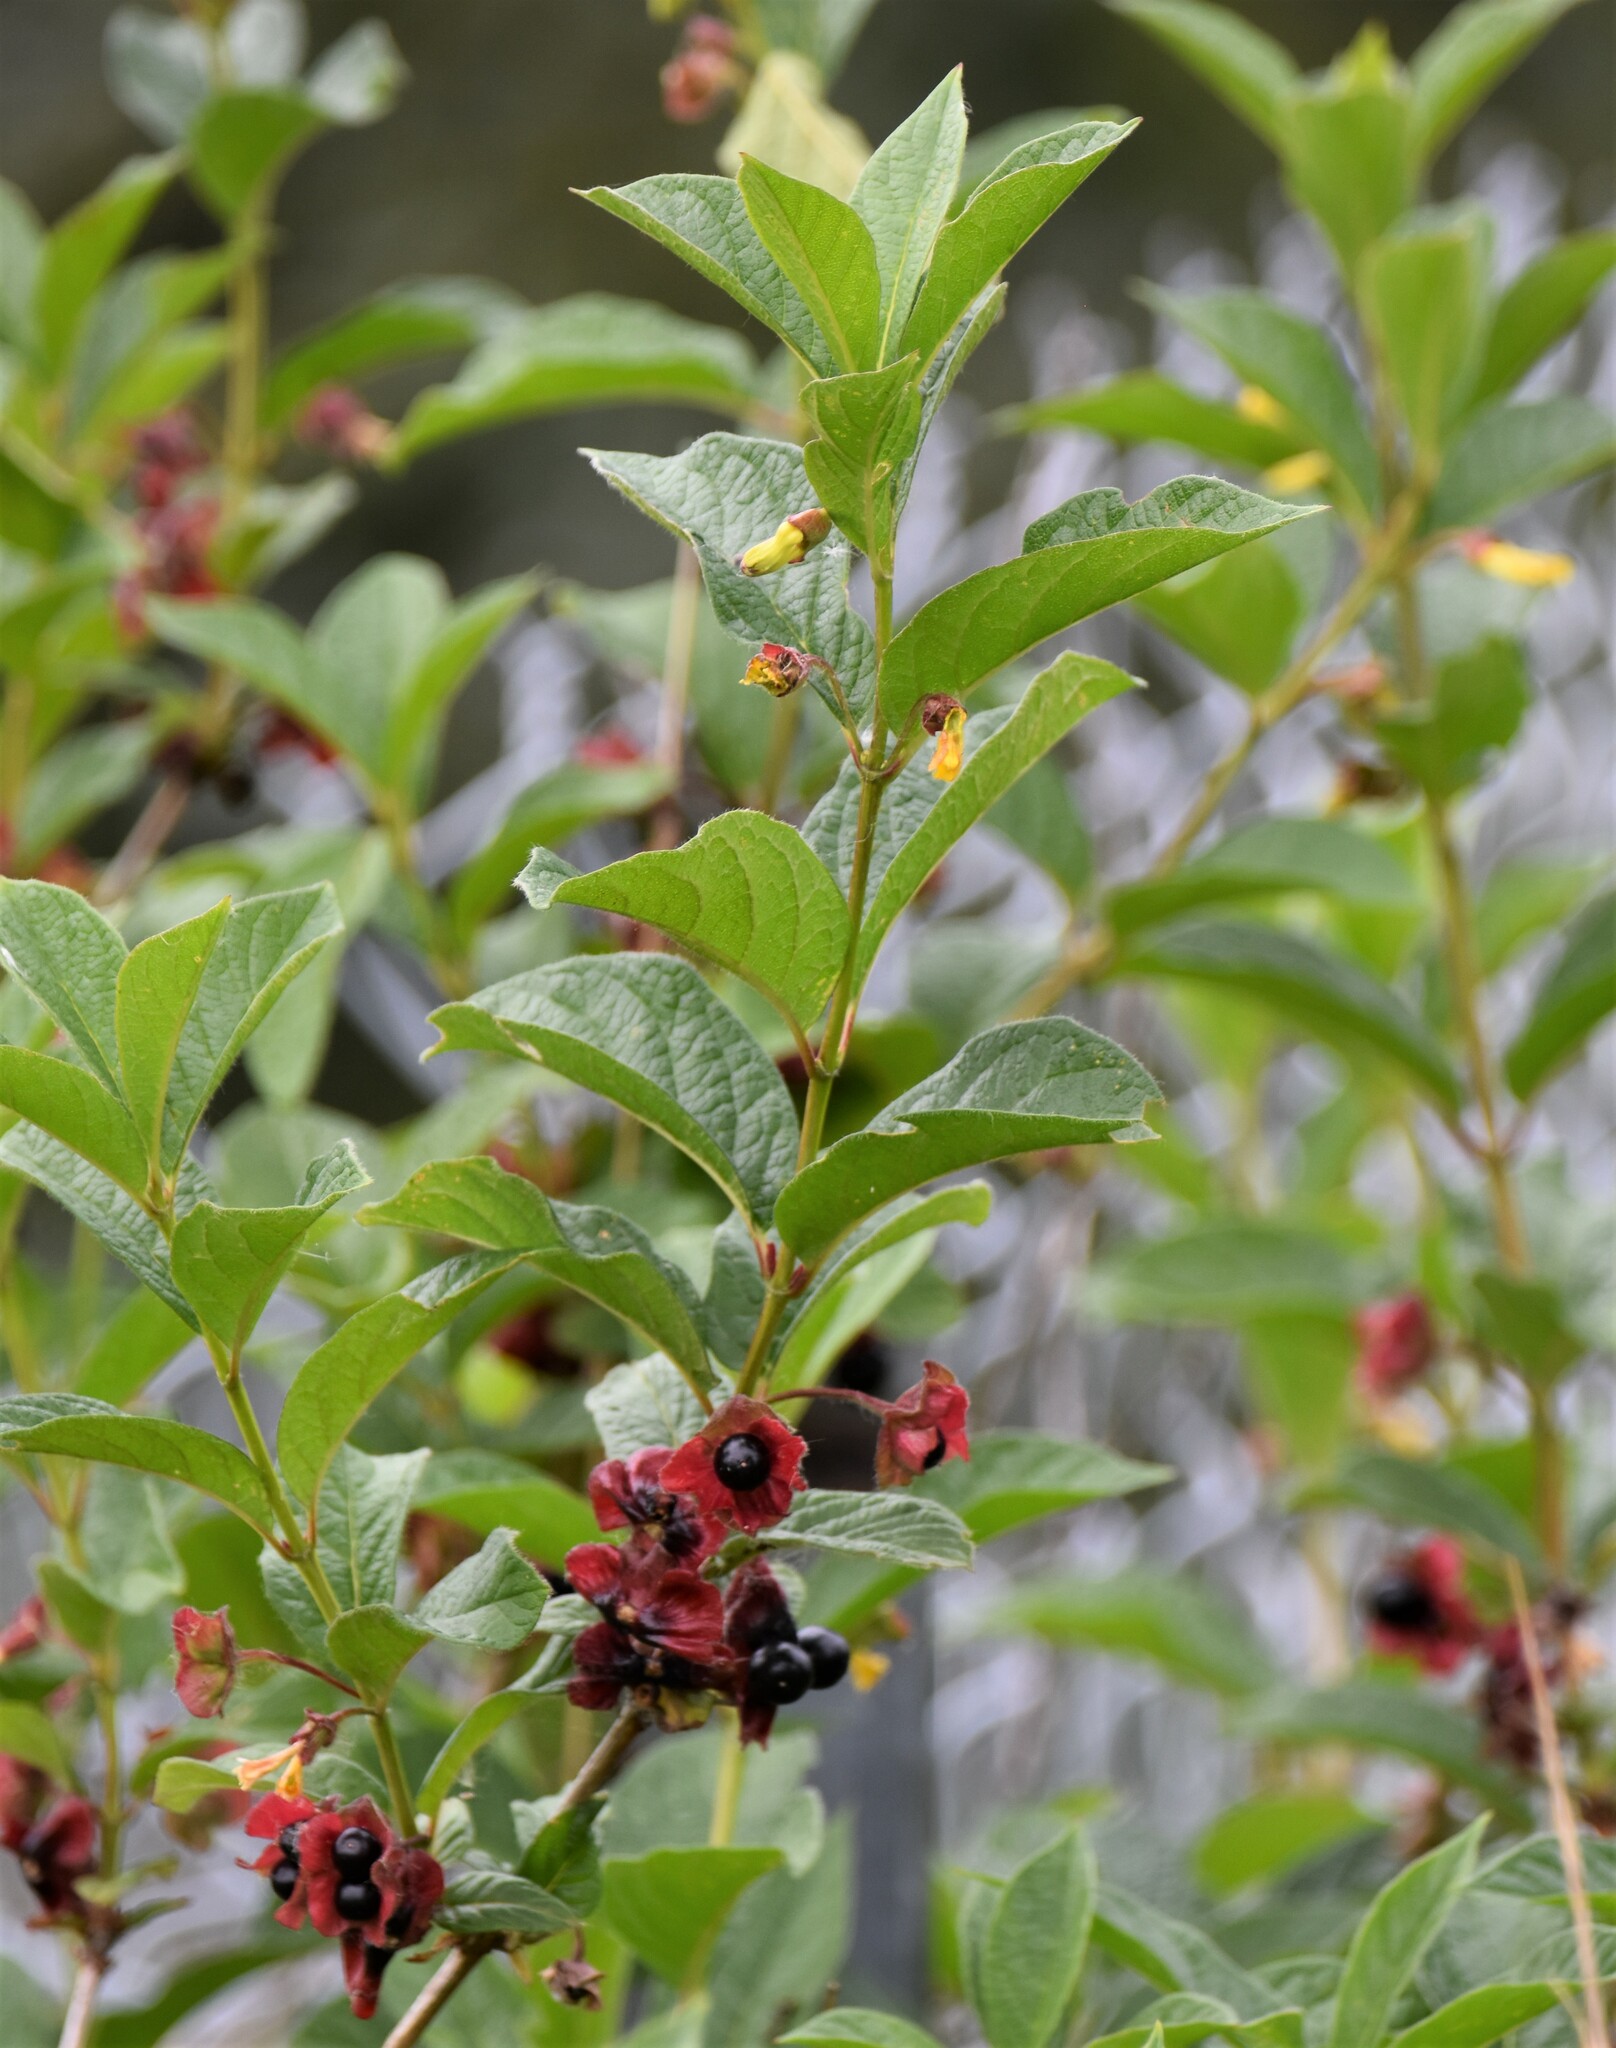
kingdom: Plantae
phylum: Tracheophyta
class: Magnoliopsida
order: Dipsacales
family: Caprifoliaceae
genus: Lonicera
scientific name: Lonicera involucrata
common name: Californian honeysuckle
